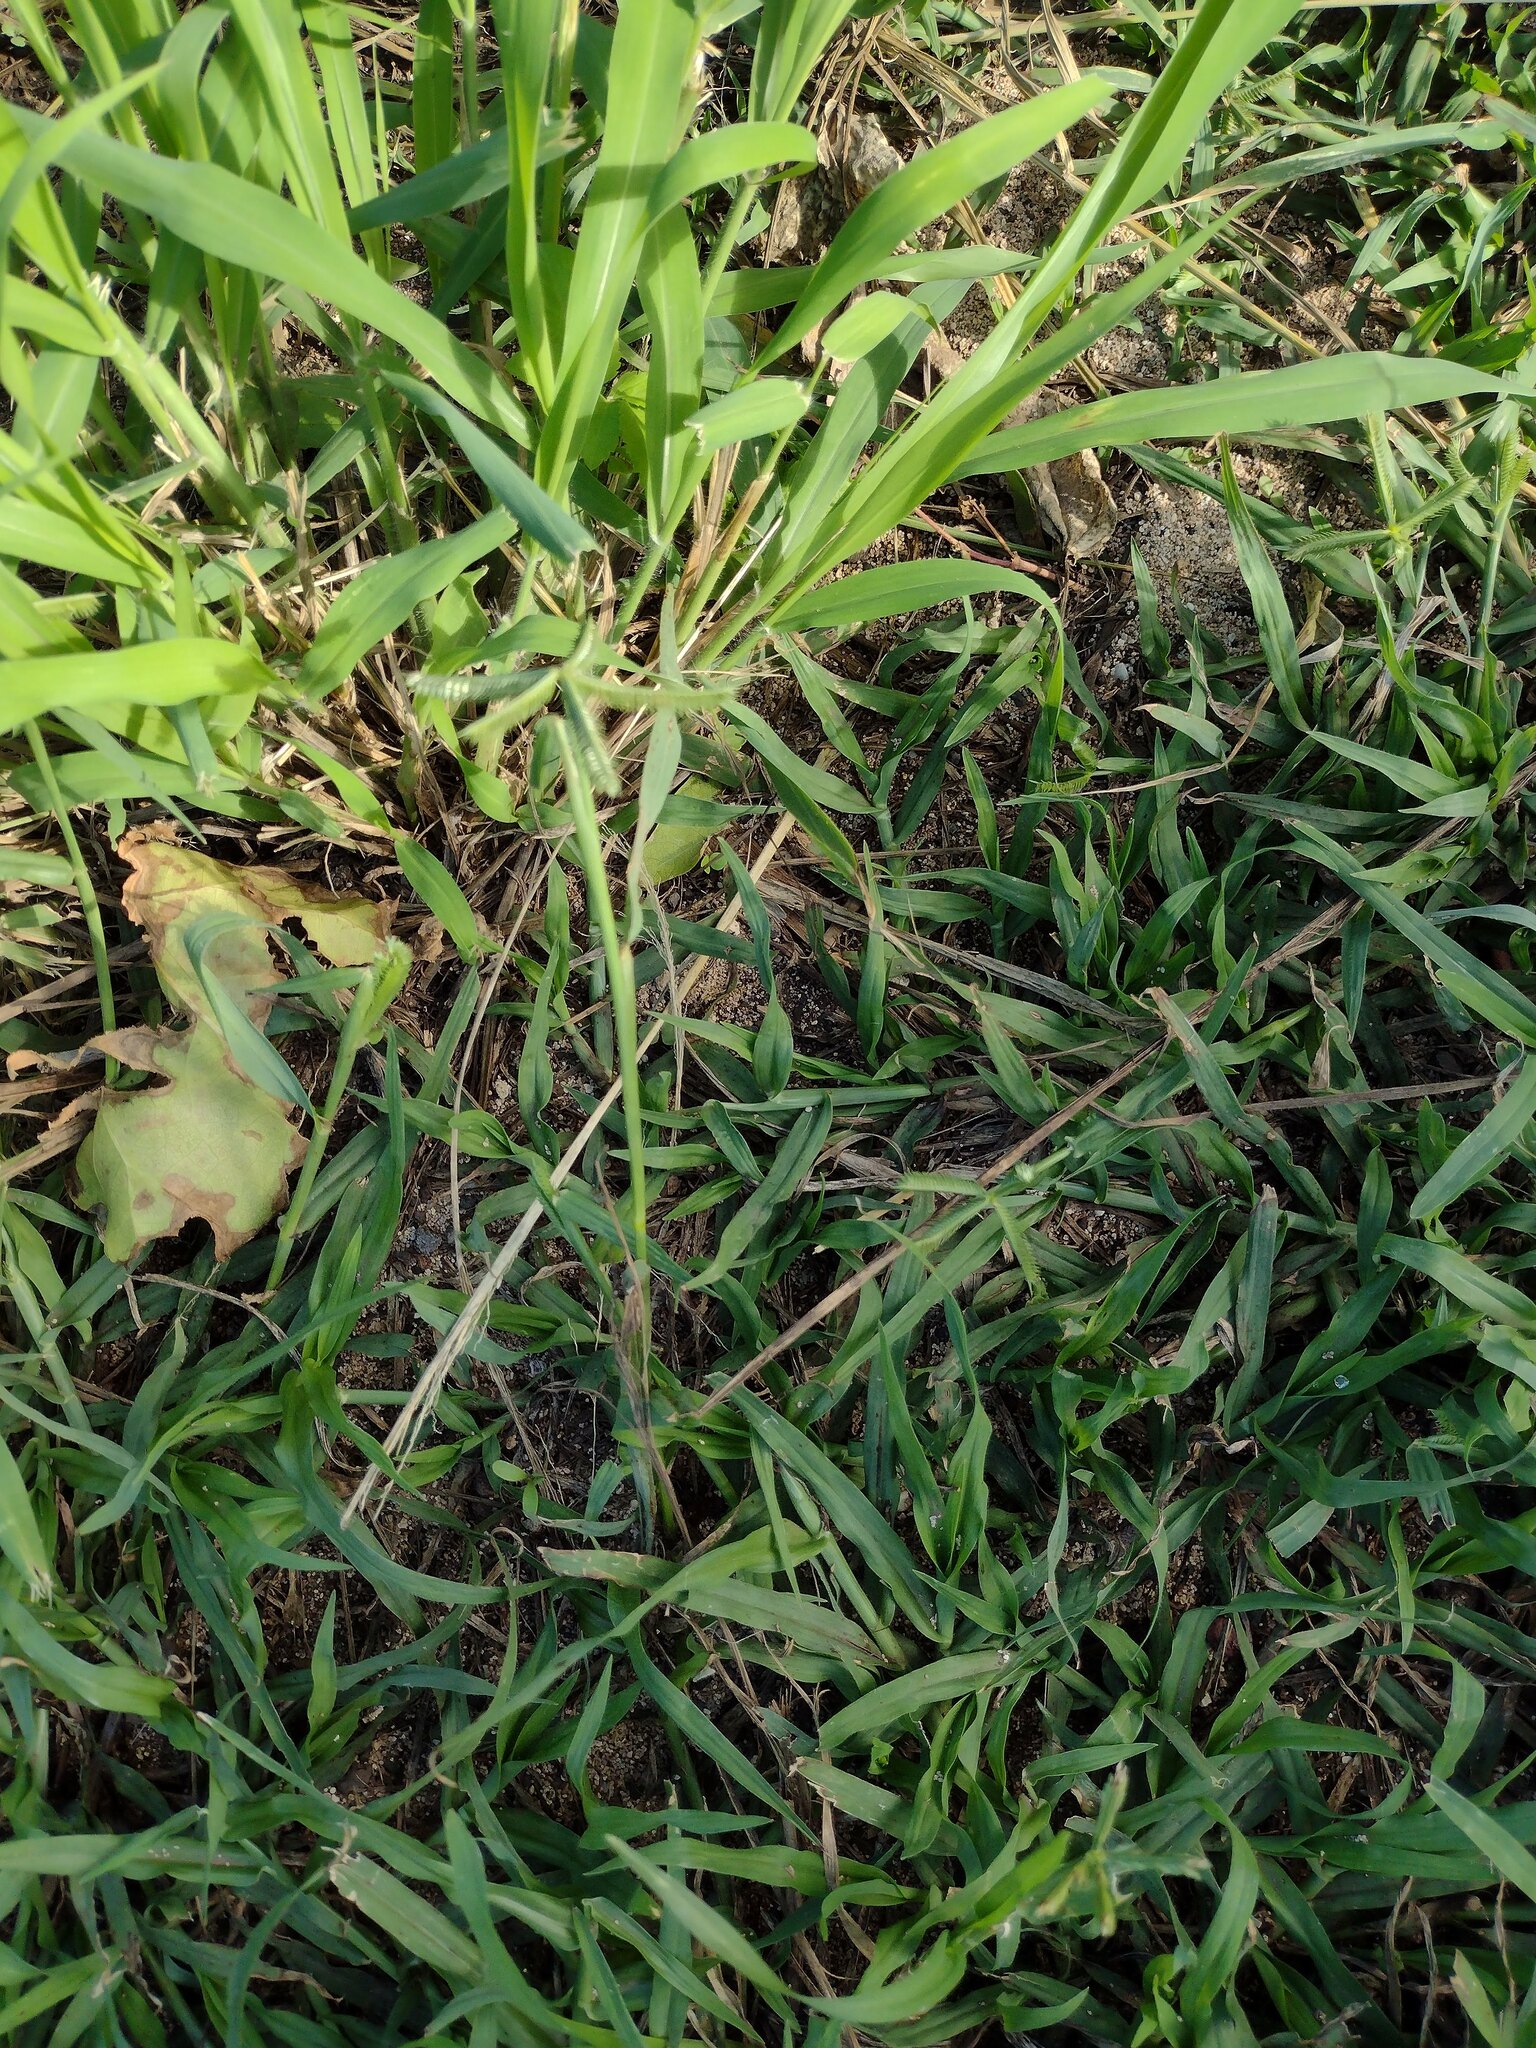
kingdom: Plantae
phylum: Tracheophyta
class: Liliopsida
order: Poales
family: Poaceae
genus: Dactyloctenium
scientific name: Dactyloctenium aegyptium
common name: Egyptian grass
